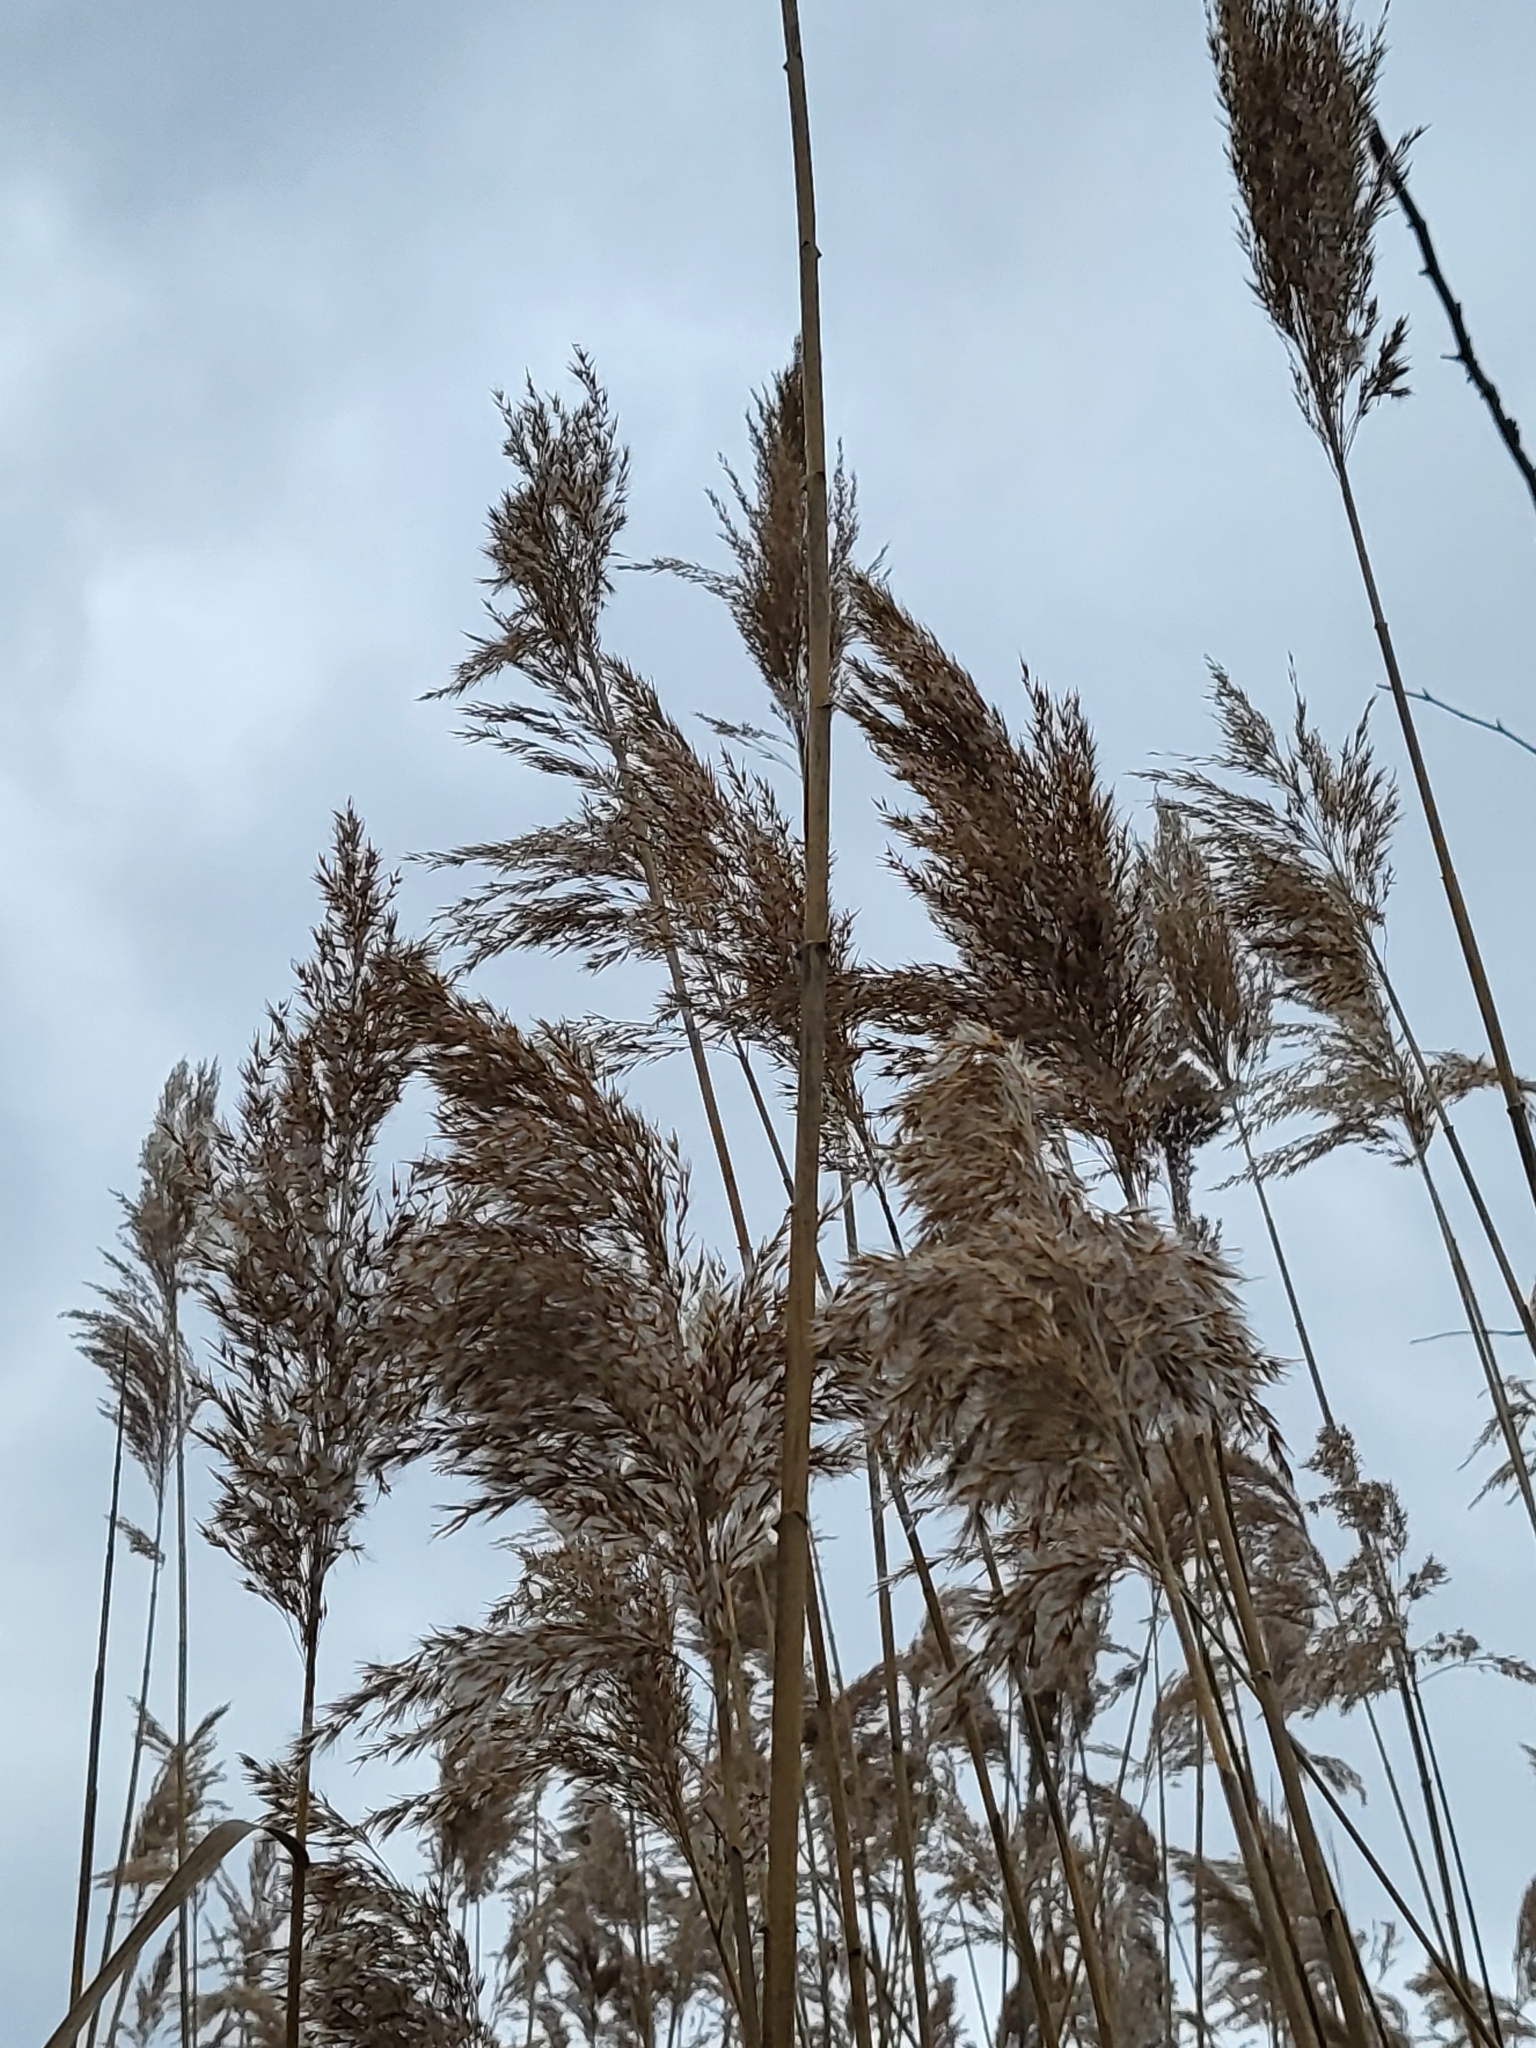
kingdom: Plantae
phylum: Tracheophyta
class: Liliopsida
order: Poales
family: Poaceae
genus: Phragmites
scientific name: Phragmites australis
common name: Common reed
